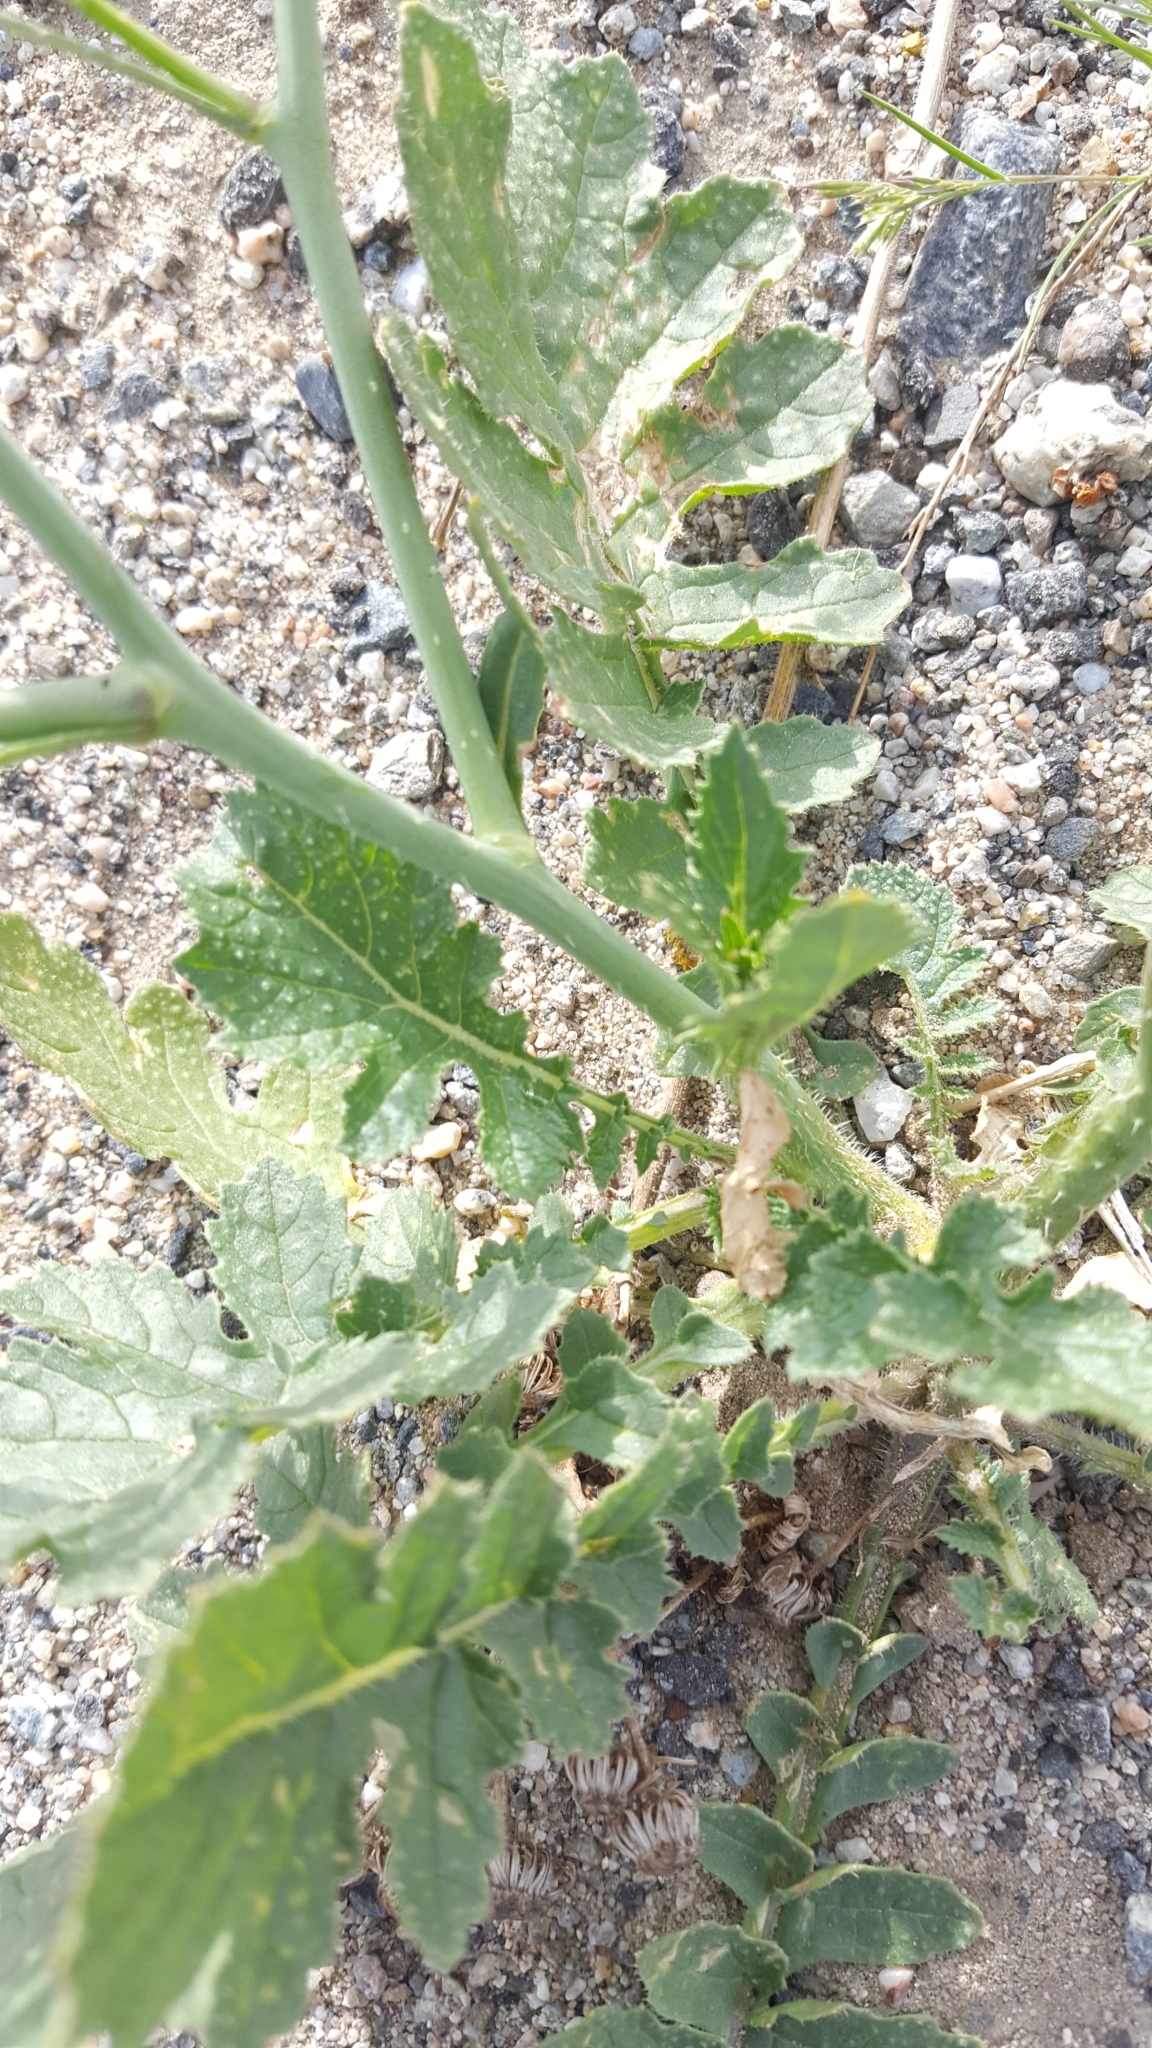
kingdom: Plantae
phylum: Tracheophyta
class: Magnoliopsida
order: Brassicales
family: Brassicaceae
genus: Brassica
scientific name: Brassica tournefortii
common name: Pale cabbage
